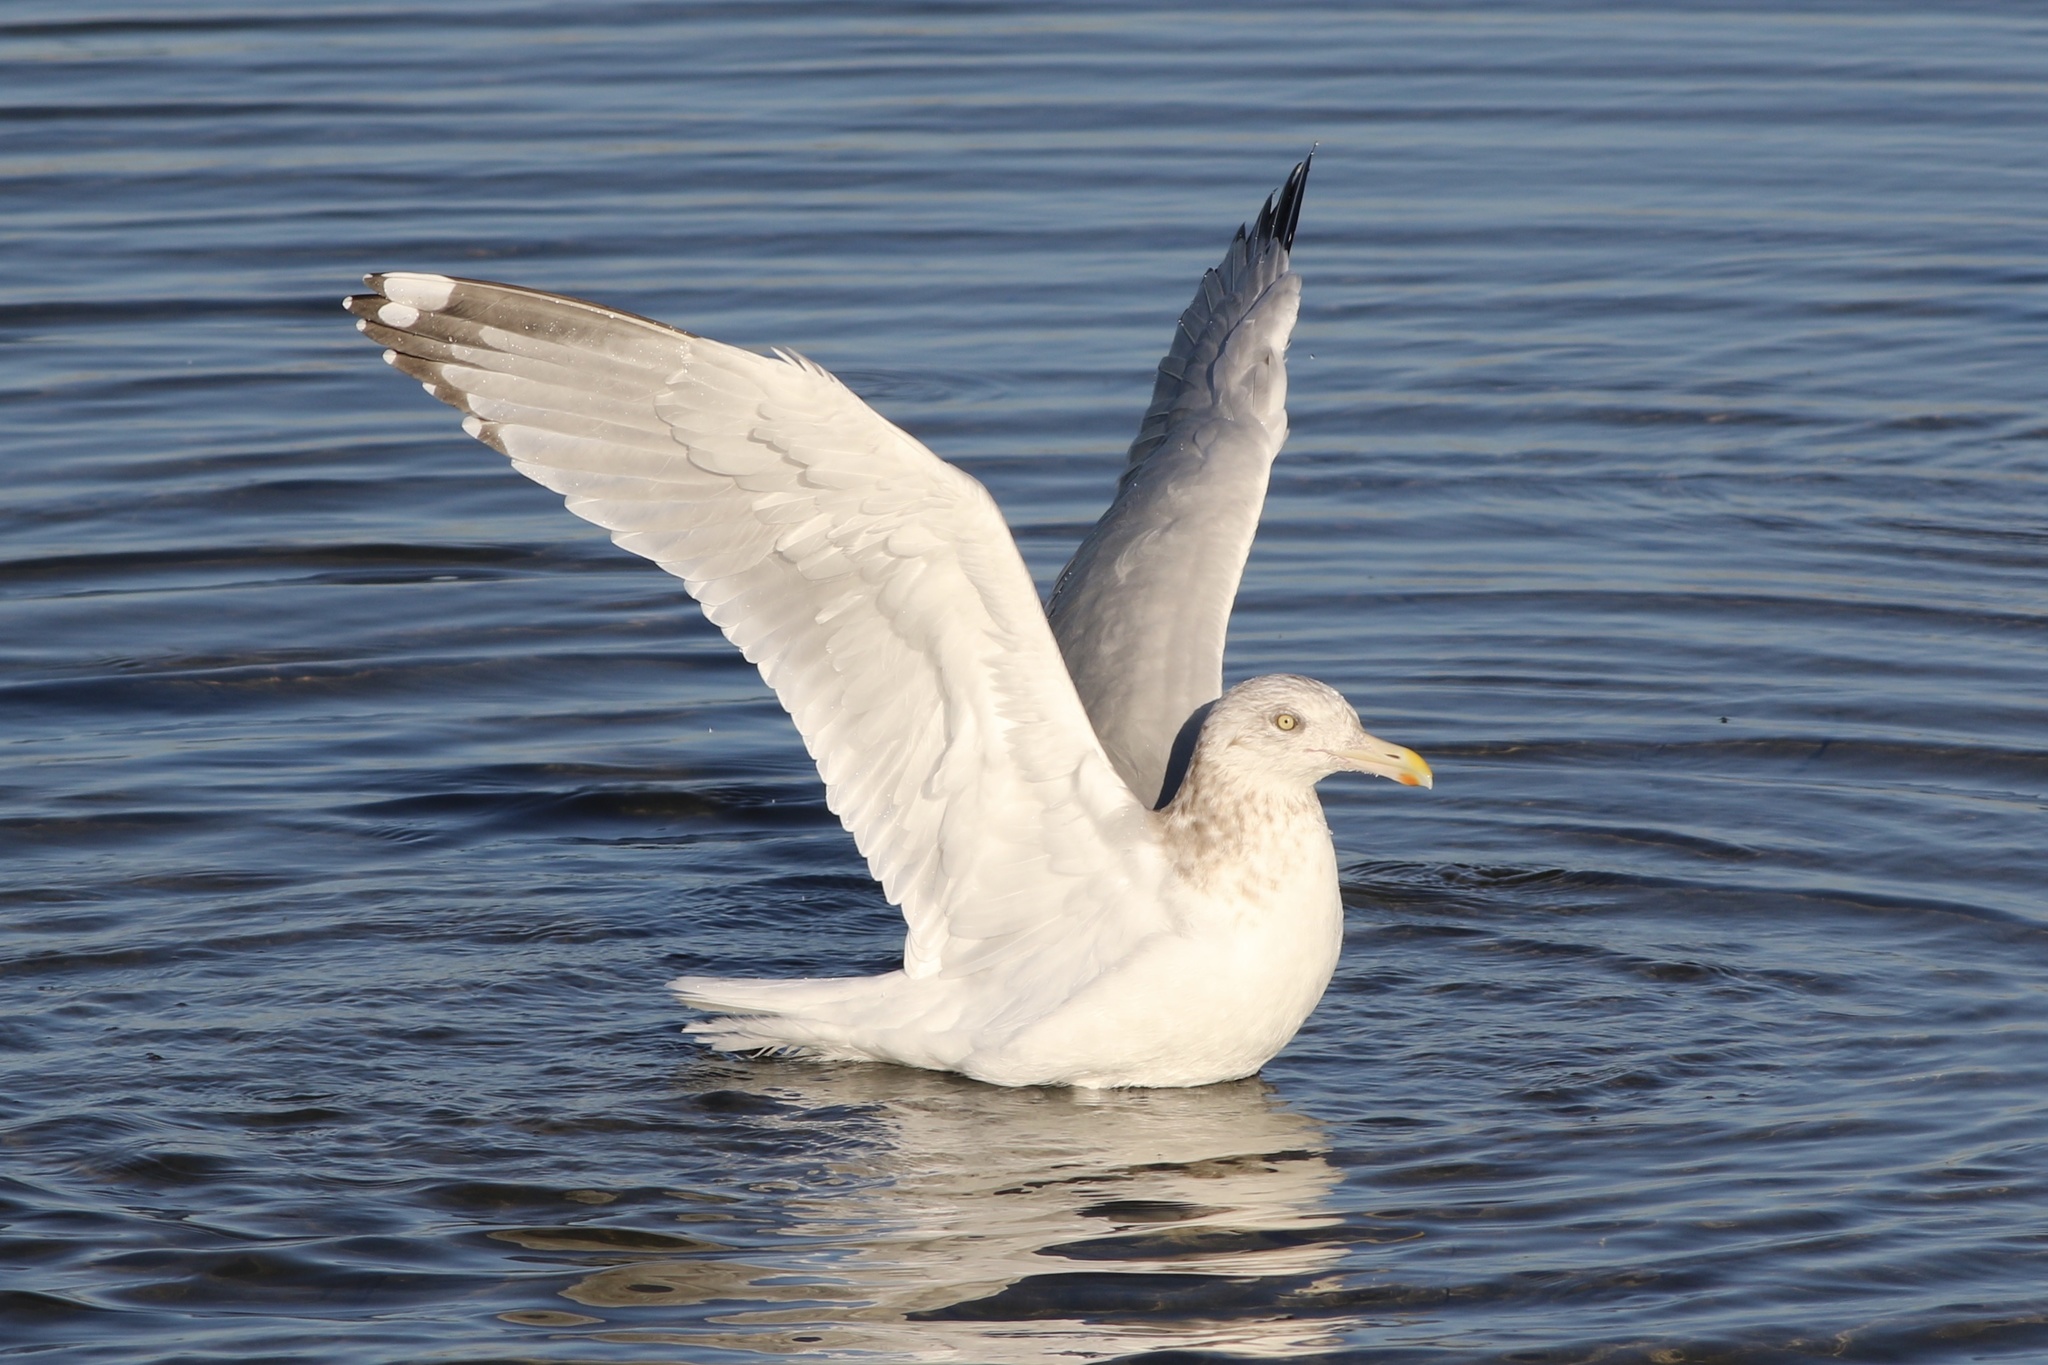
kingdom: Animalia
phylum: Chordata
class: Aves
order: Charadriiformes
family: Laridae
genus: Larus
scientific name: Larus argentatus
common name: Herring gull
